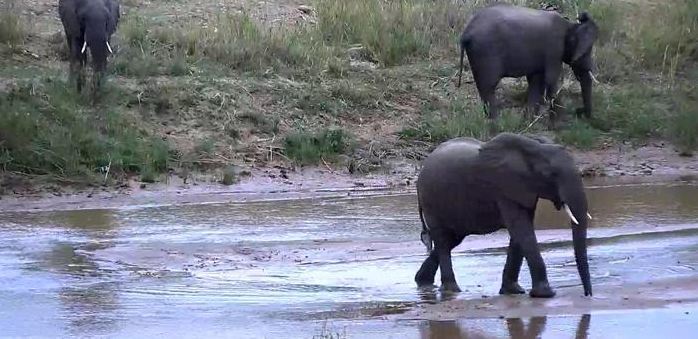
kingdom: Animalia
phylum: Chordata
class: Mammalia
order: Proboscidea
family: Elephantidae
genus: Loxodonta
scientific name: Loxodonta africana
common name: African elephant
